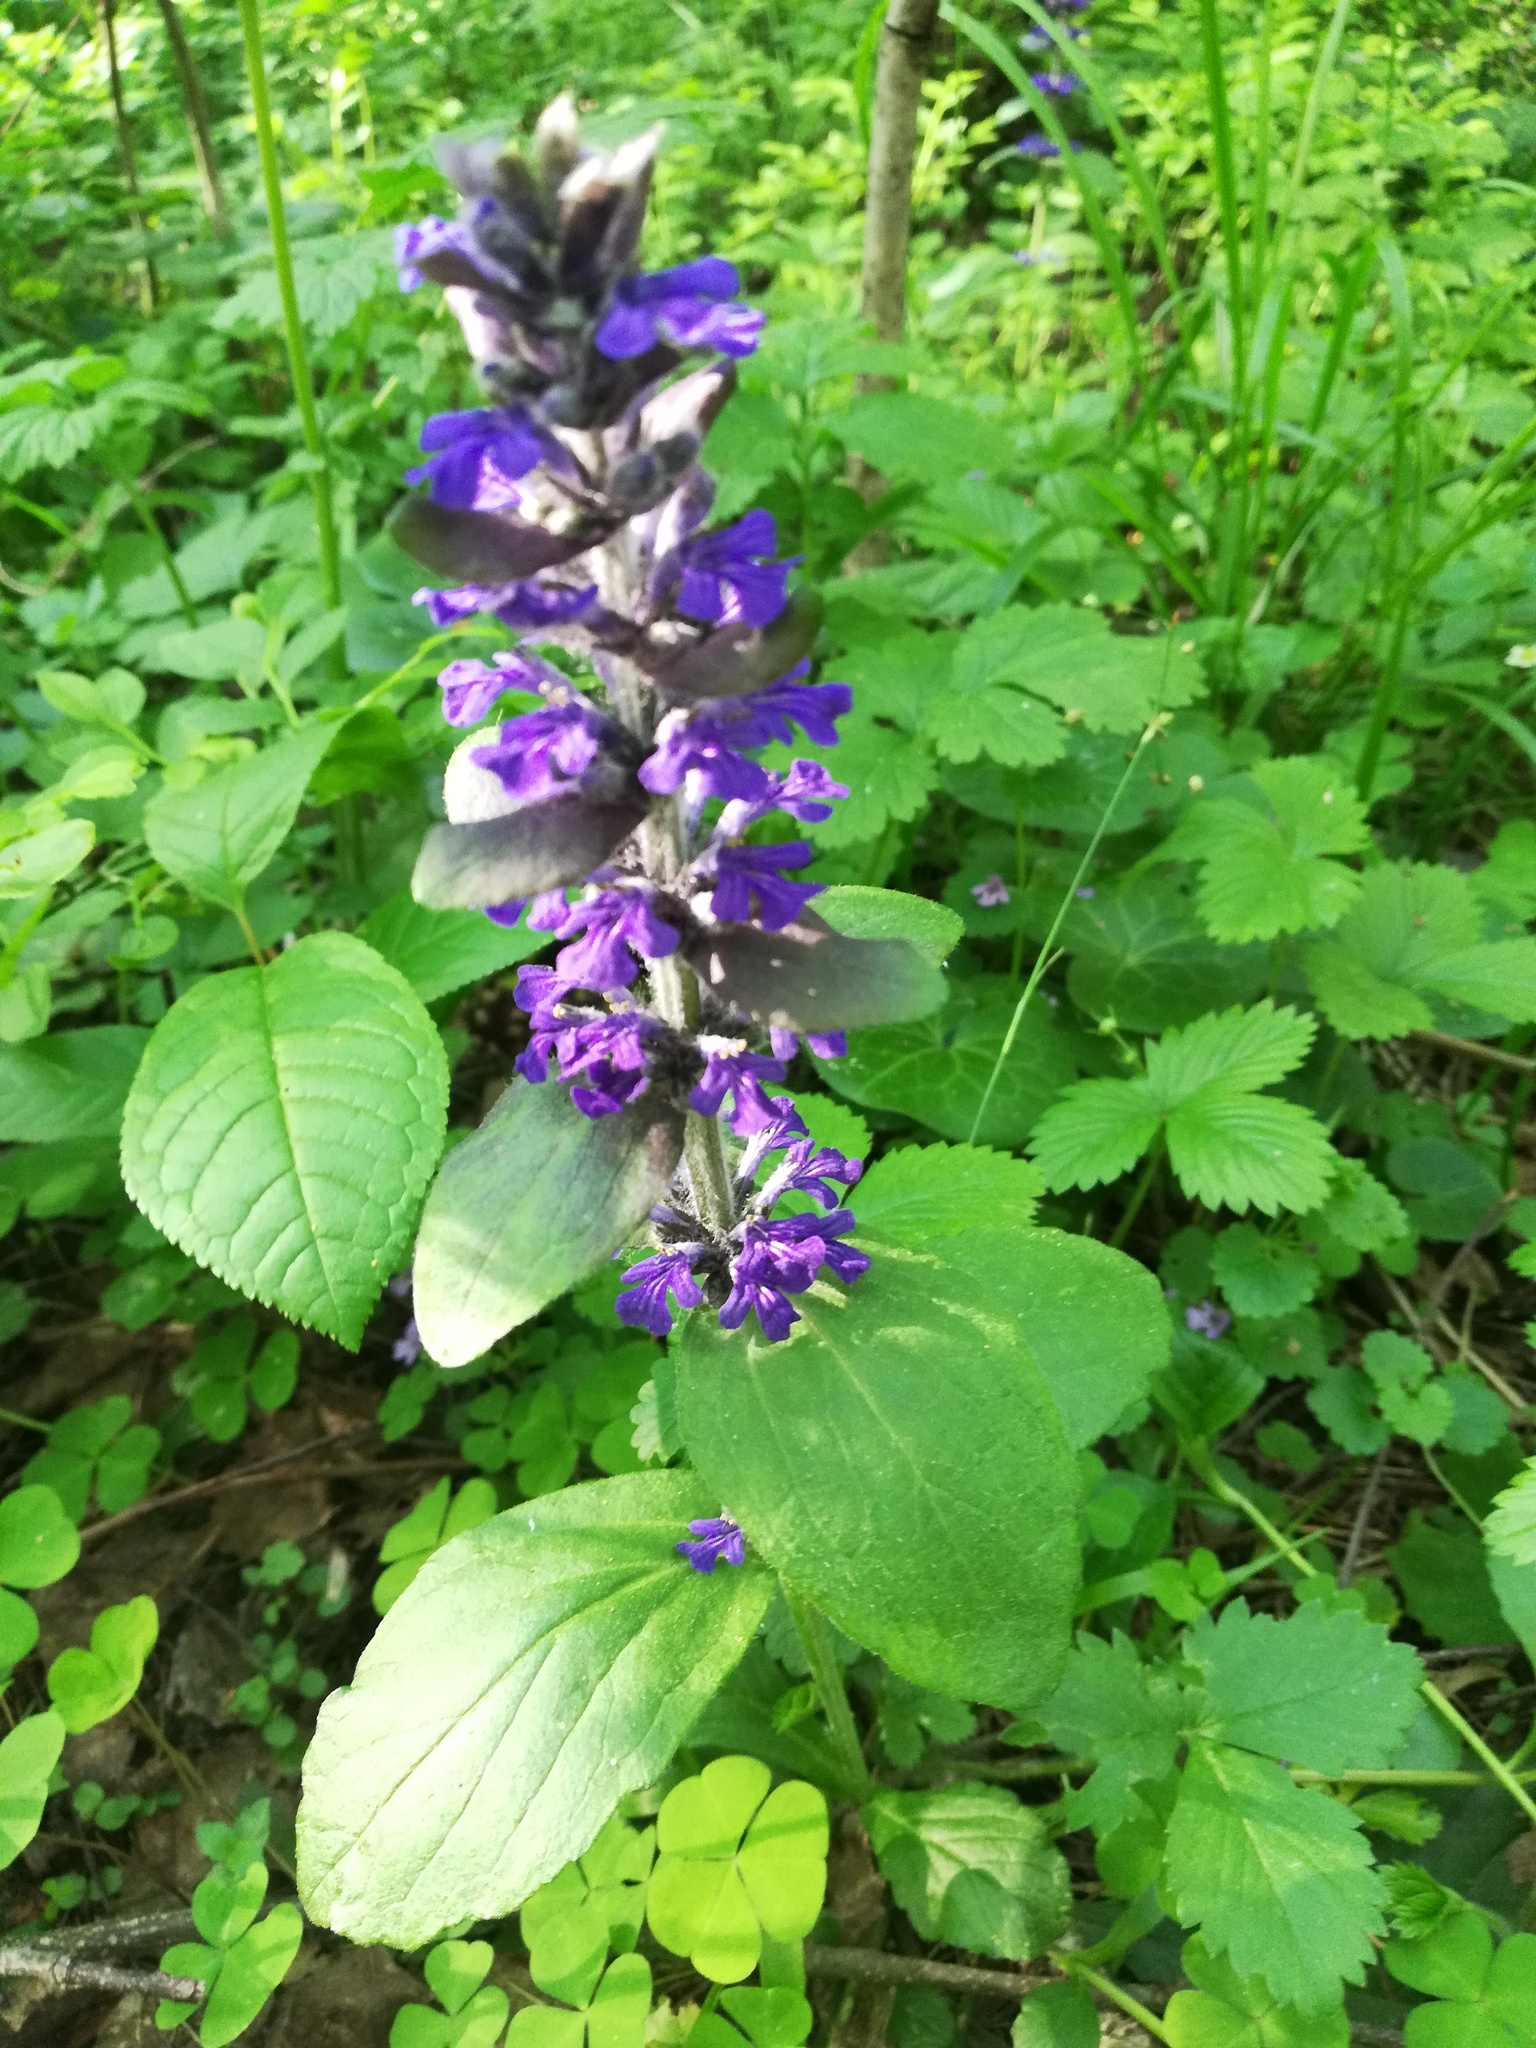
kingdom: Plantae
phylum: Tracheophyta
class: Magnoliopsida
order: Lamiales
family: Lamiaceae
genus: Ajuga
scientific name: Ajuga reptans
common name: Bugle
